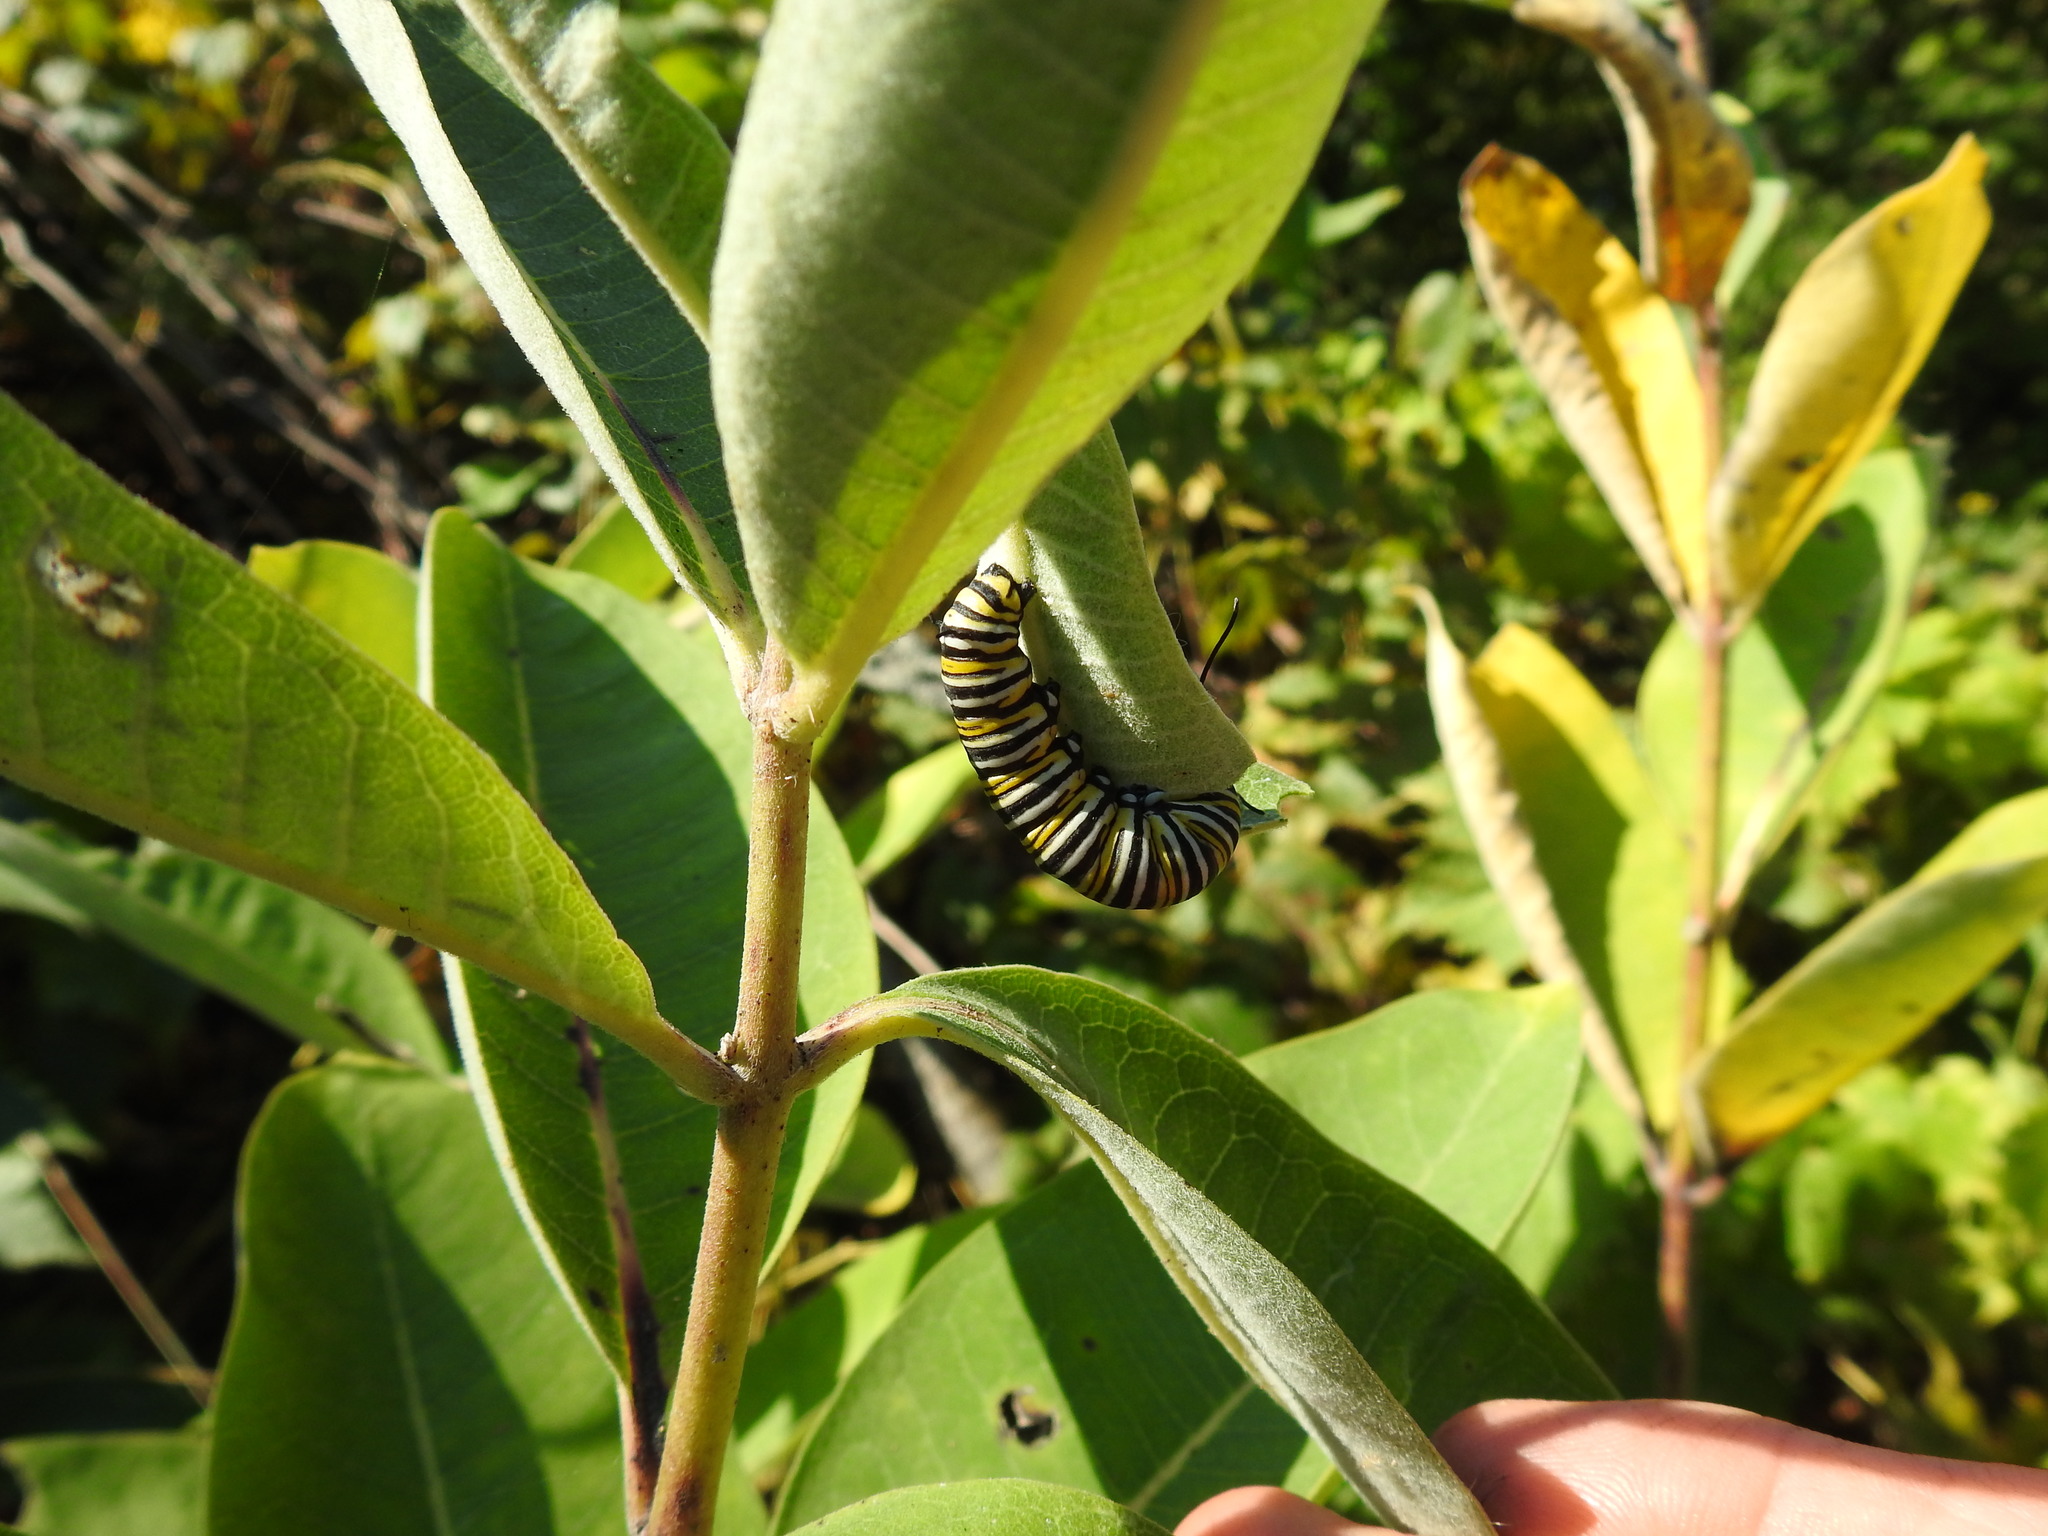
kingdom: Animalia
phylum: Arthropoda
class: Insecta
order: Lepidoptera
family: Nymphalidae
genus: Danaus
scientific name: Danaus plexippus
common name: Monarch
